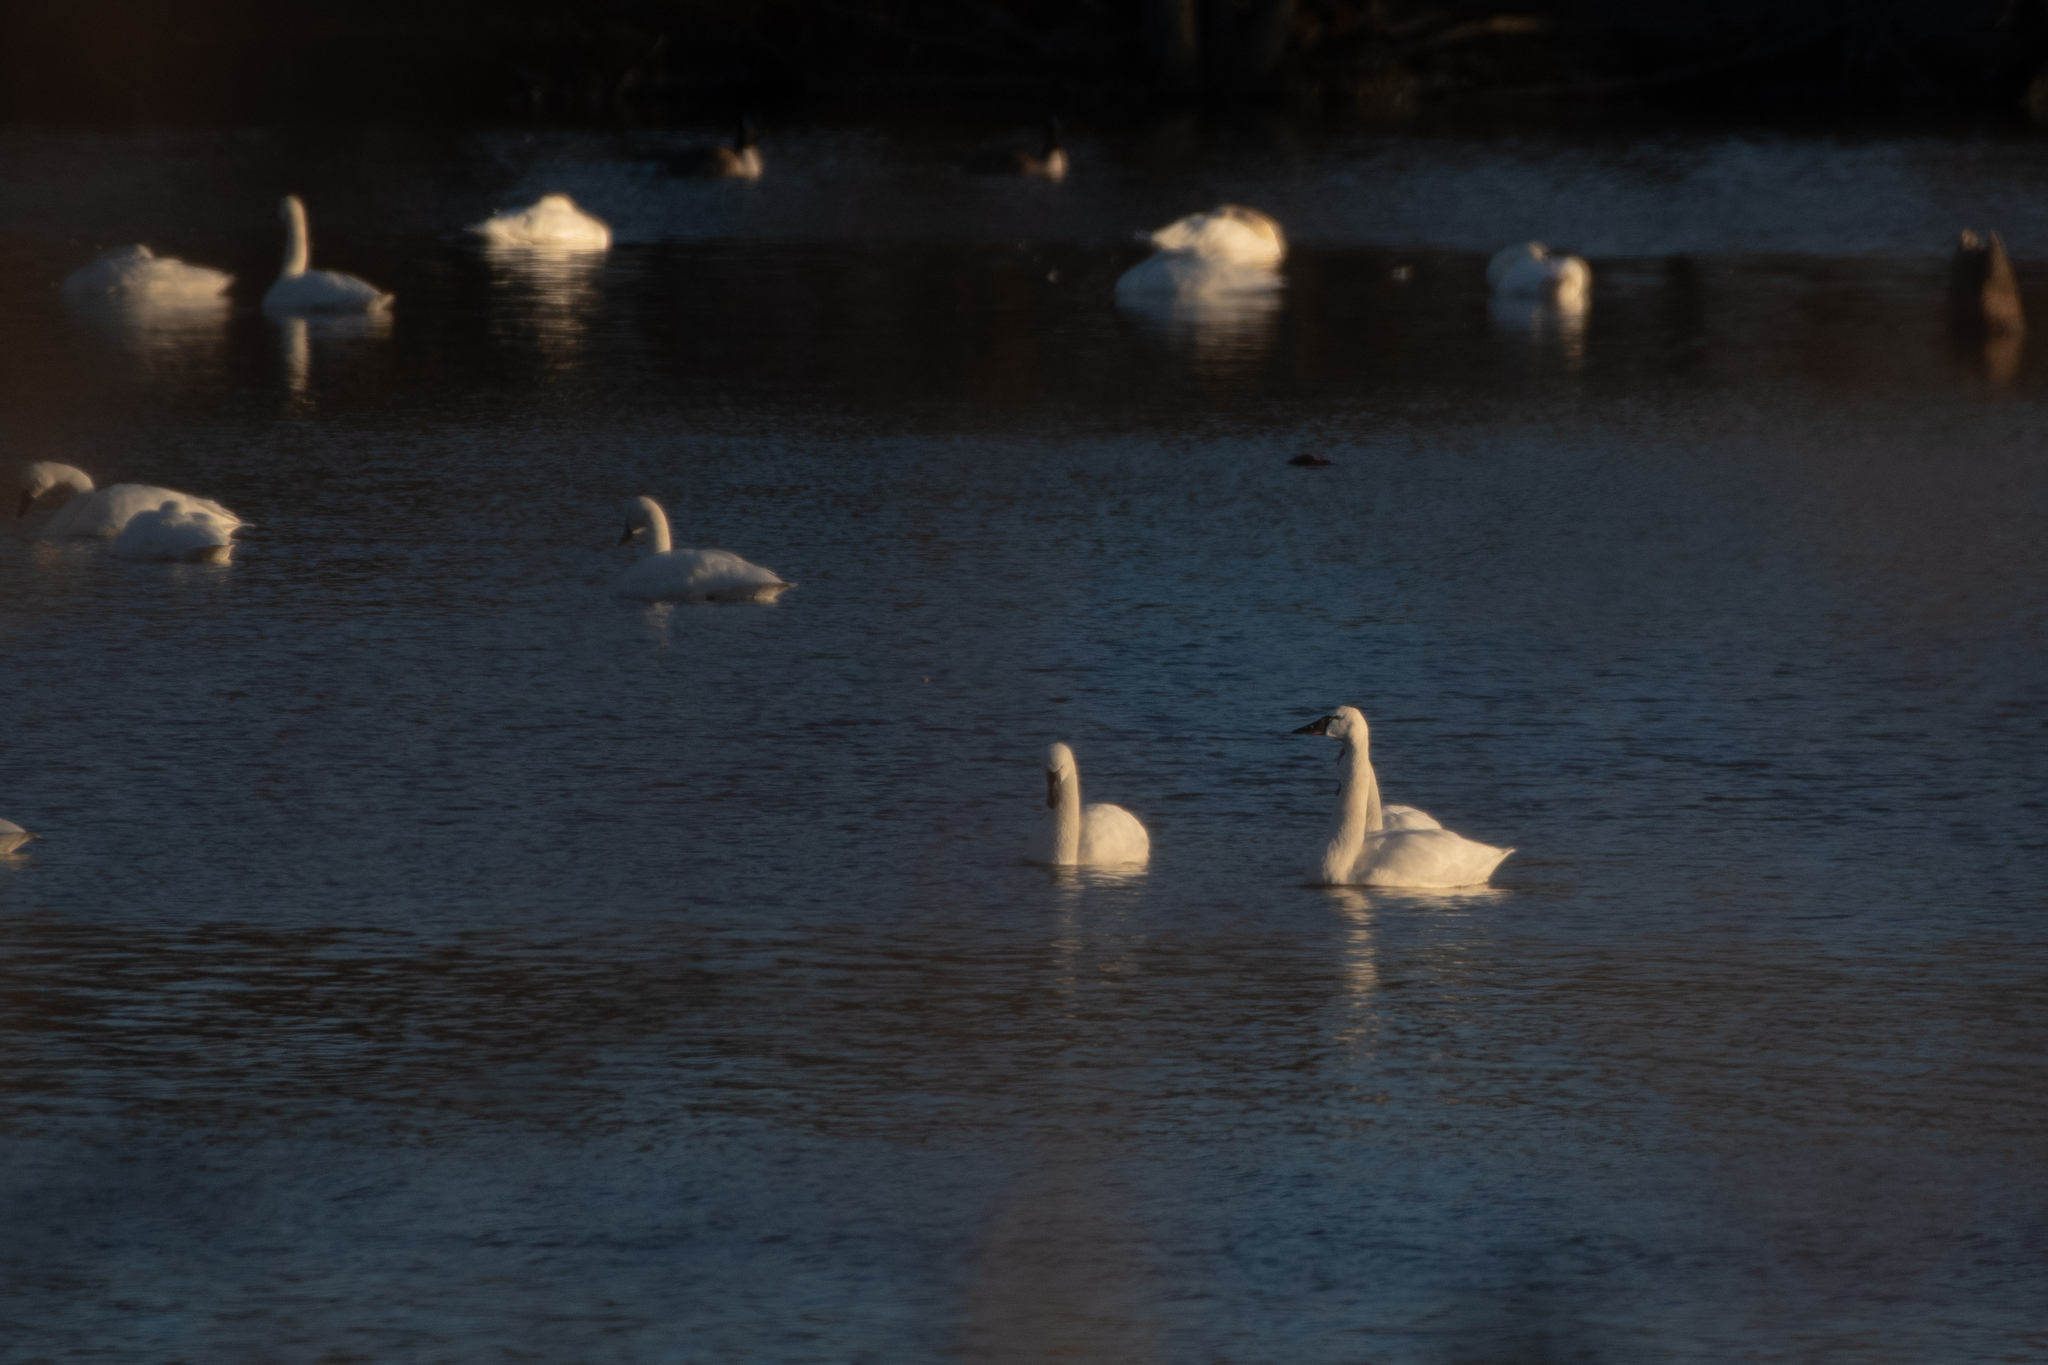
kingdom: Animalia
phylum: Chordata
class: Aves
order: Anseriformes
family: Anatidae
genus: Cygnus
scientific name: Cygnus columbianus
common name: Tundra swan
